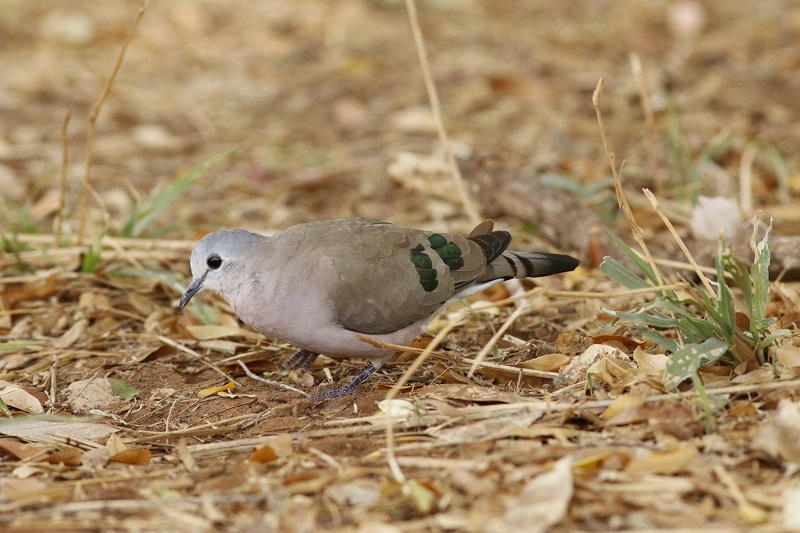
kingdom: Animalia
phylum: Chordata
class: Aves
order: Columbiformes
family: Columbidae
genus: Turtur
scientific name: Turtur chalcospilos
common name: Emerald-spotted wood dove
